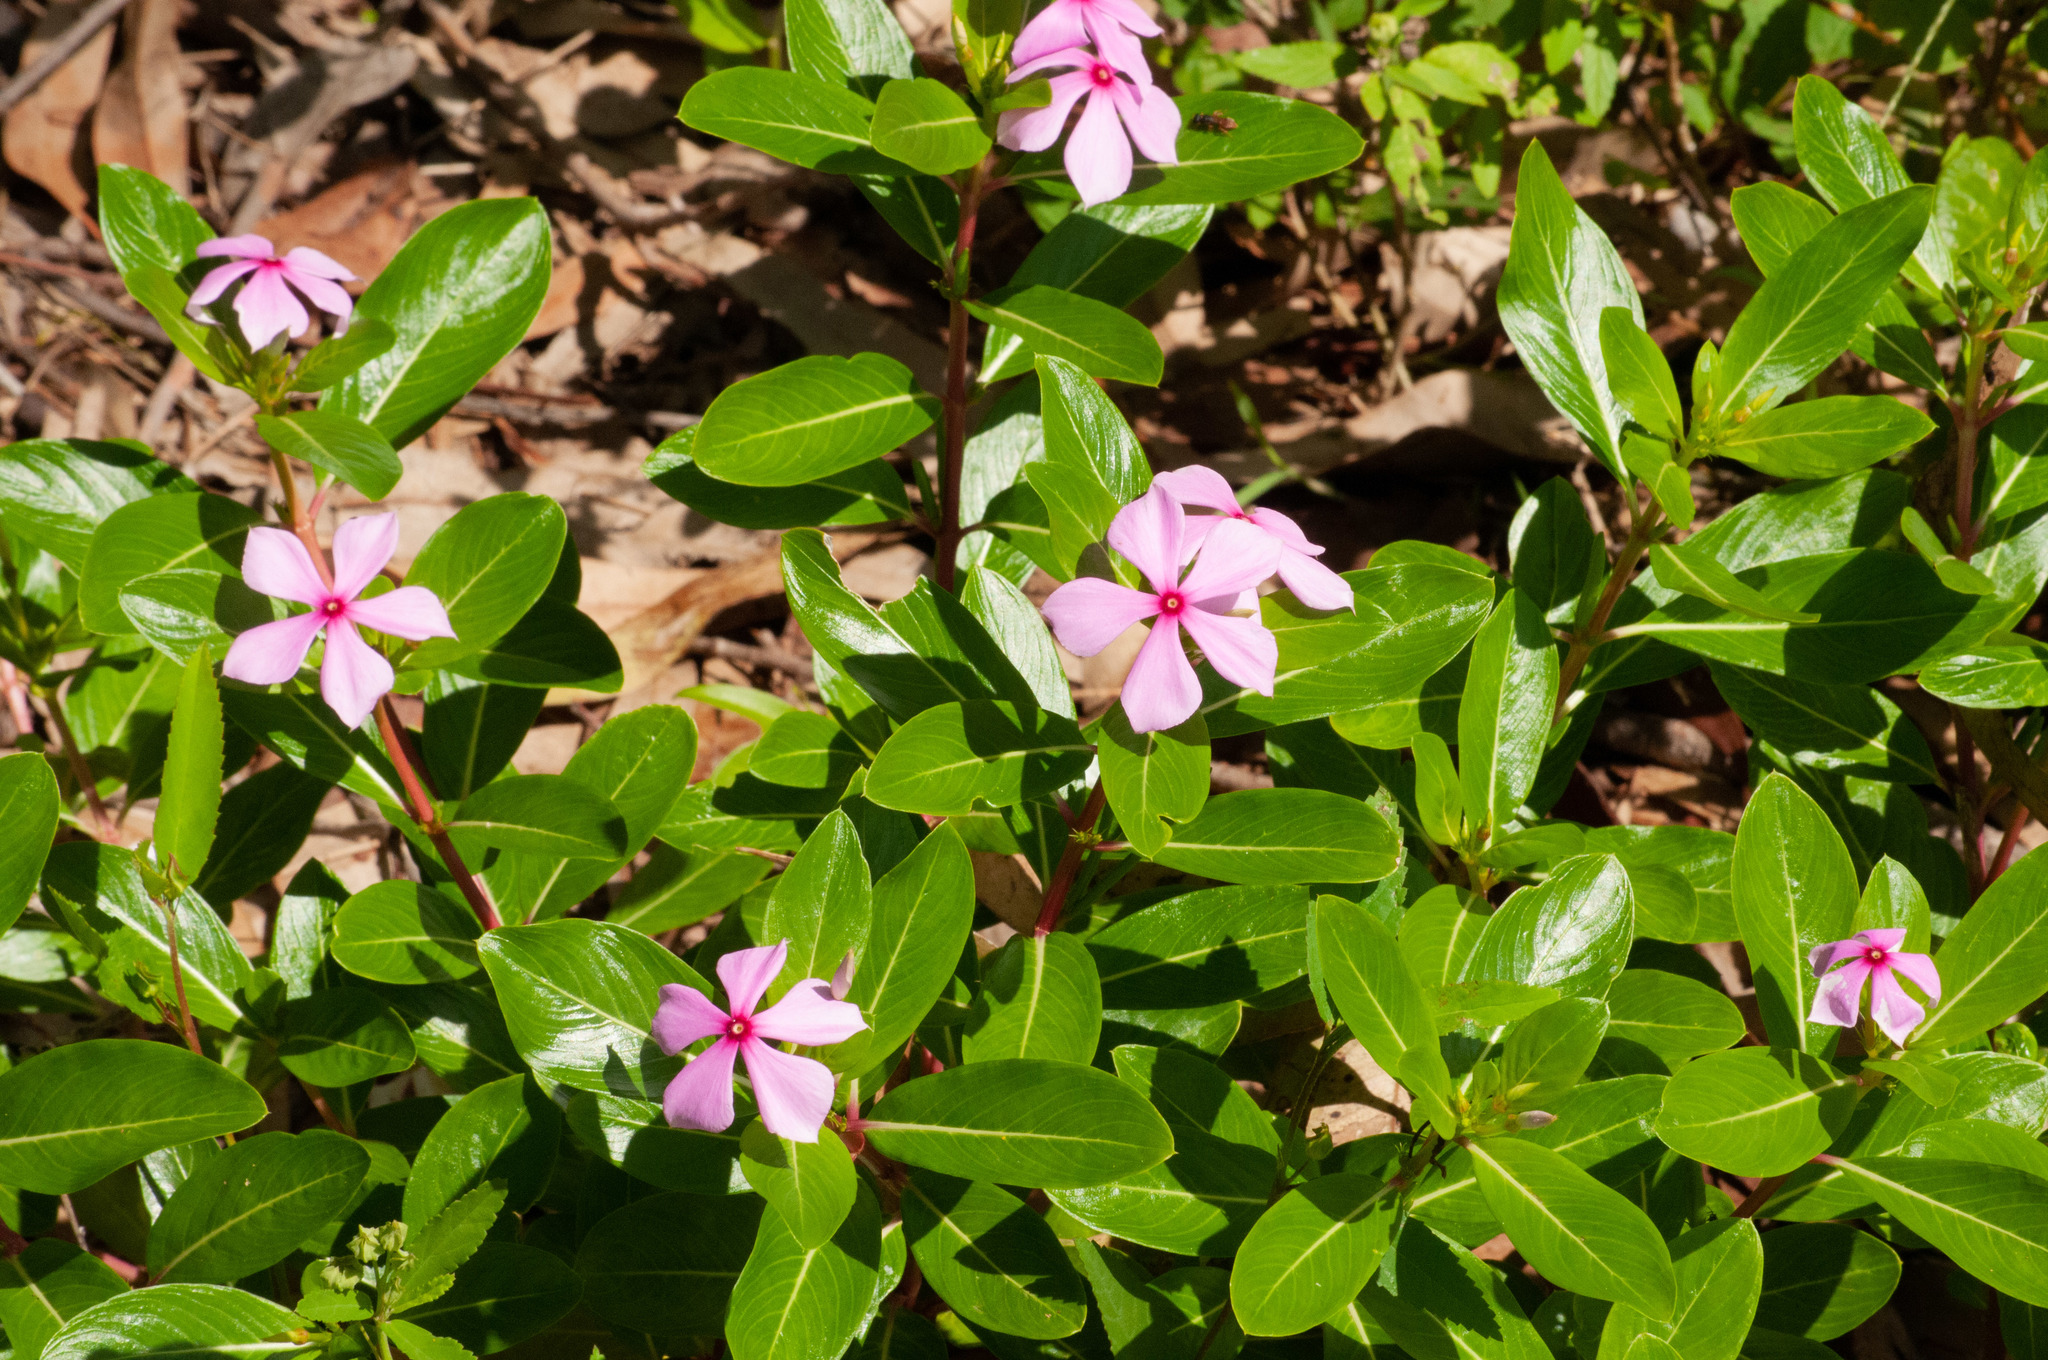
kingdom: Plantae
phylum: Tracheophyta
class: Magnoliopsida
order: Gentianales
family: Apocynaceae
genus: Catharanthus
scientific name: Catharanthus roseus
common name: Madagascar periwinkle
